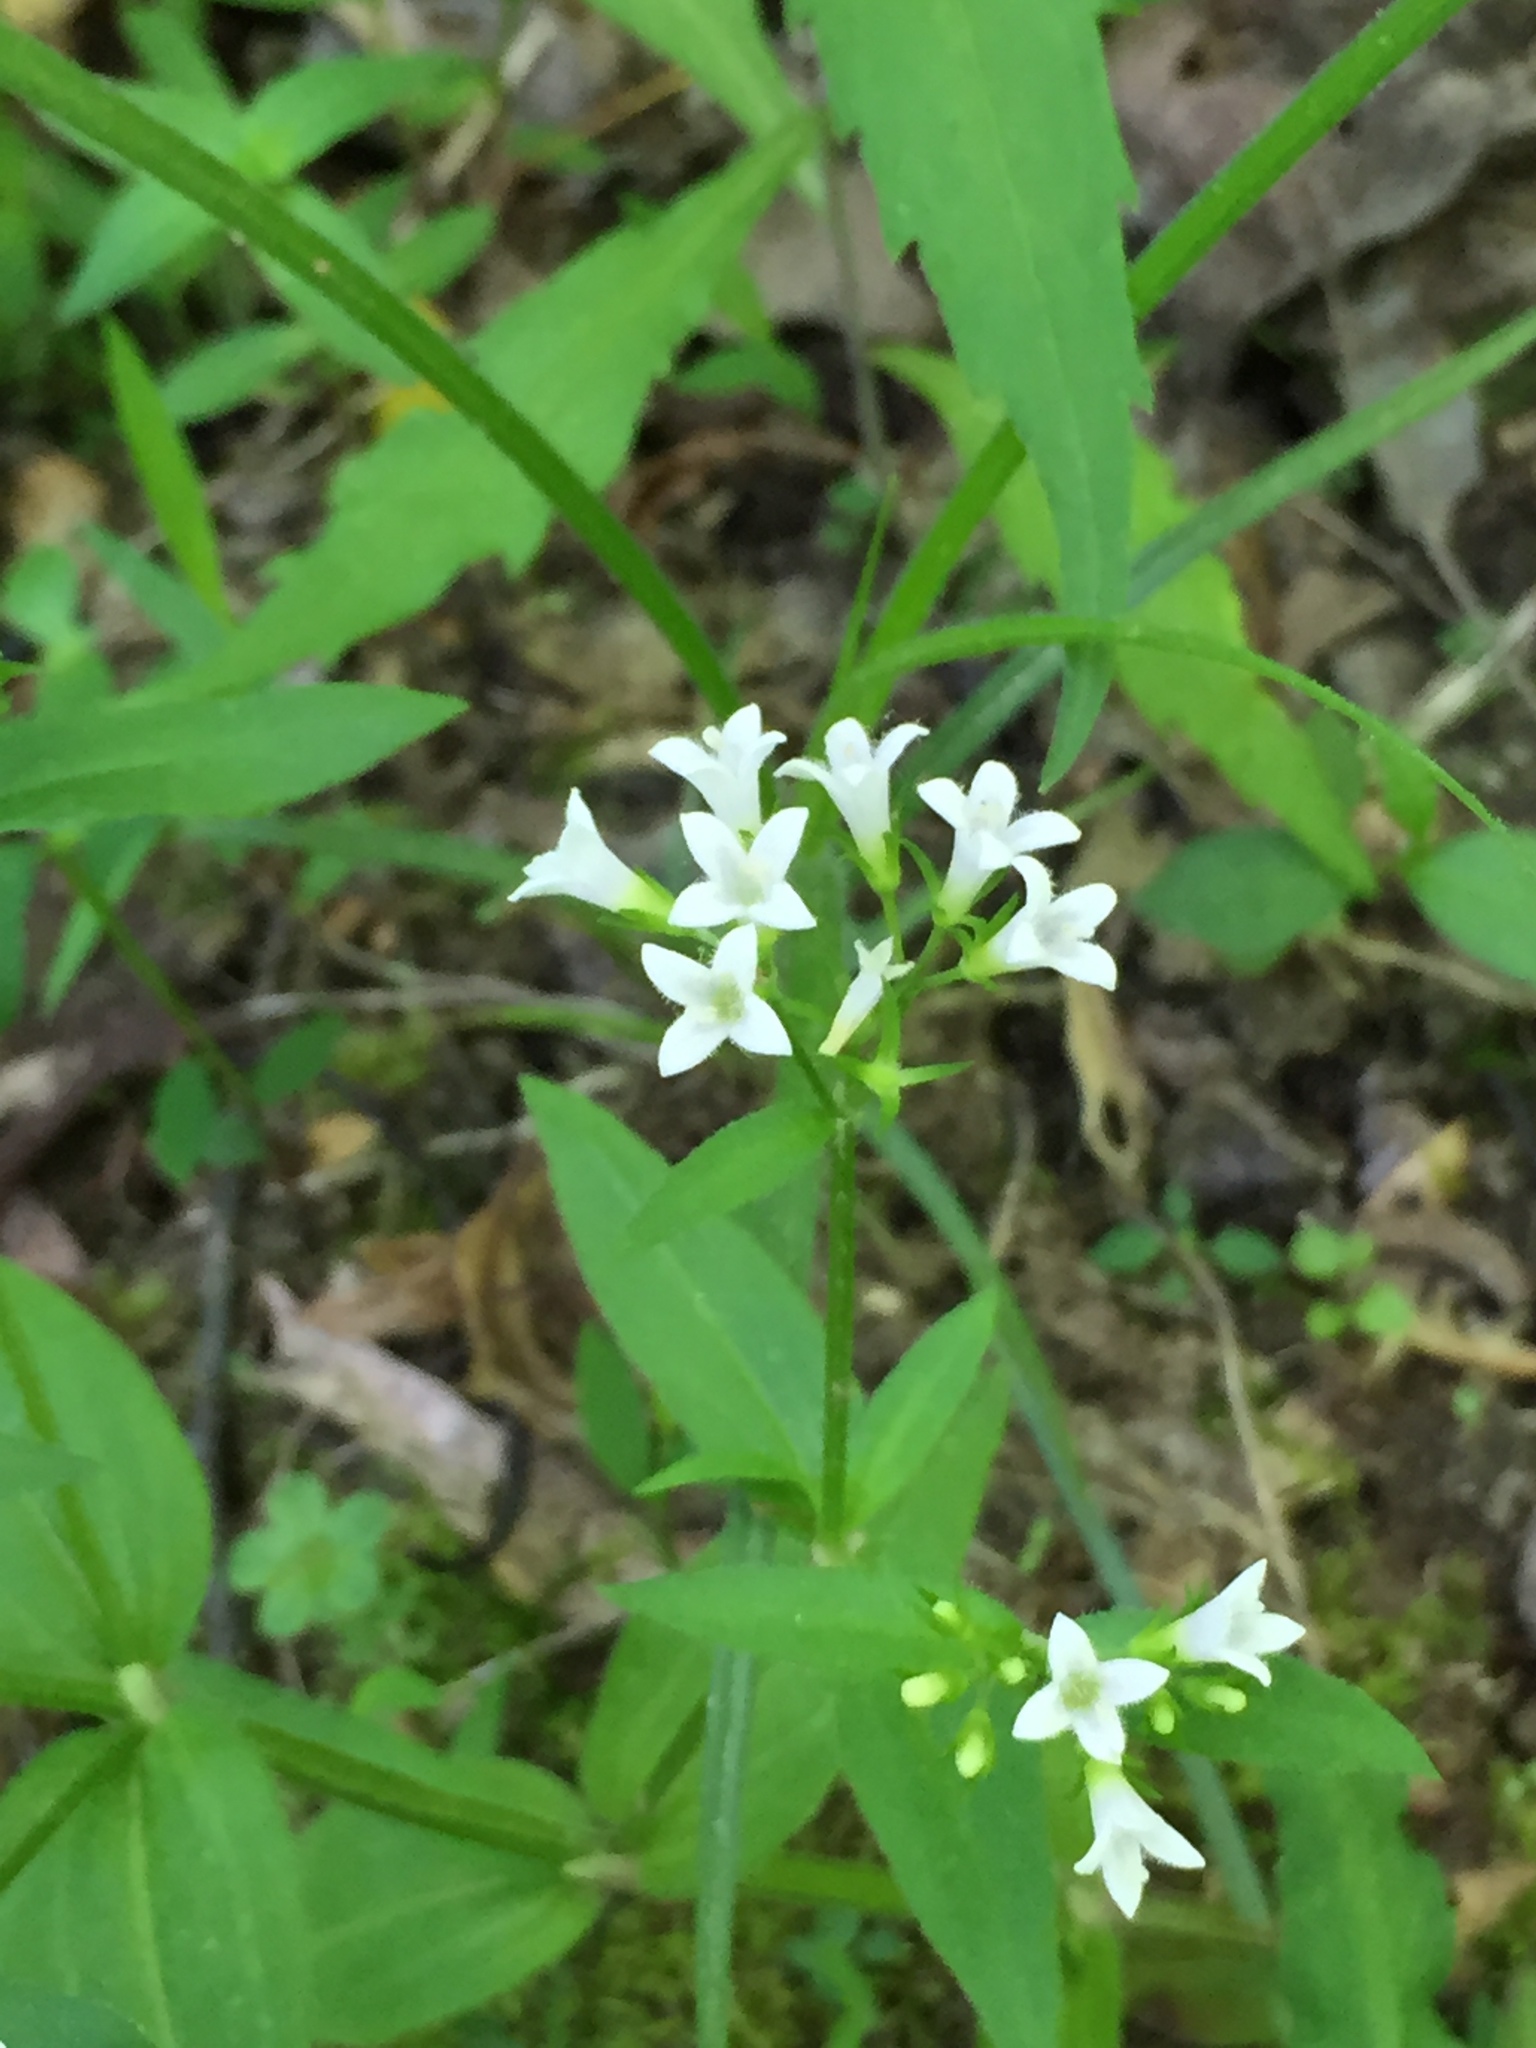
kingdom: Plantae
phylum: Tracheophyta
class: Magnoliopsida
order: Gentianales
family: Rubiaceae
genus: Houstonia
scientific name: Houstonia purpurea
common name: Summer bluet
